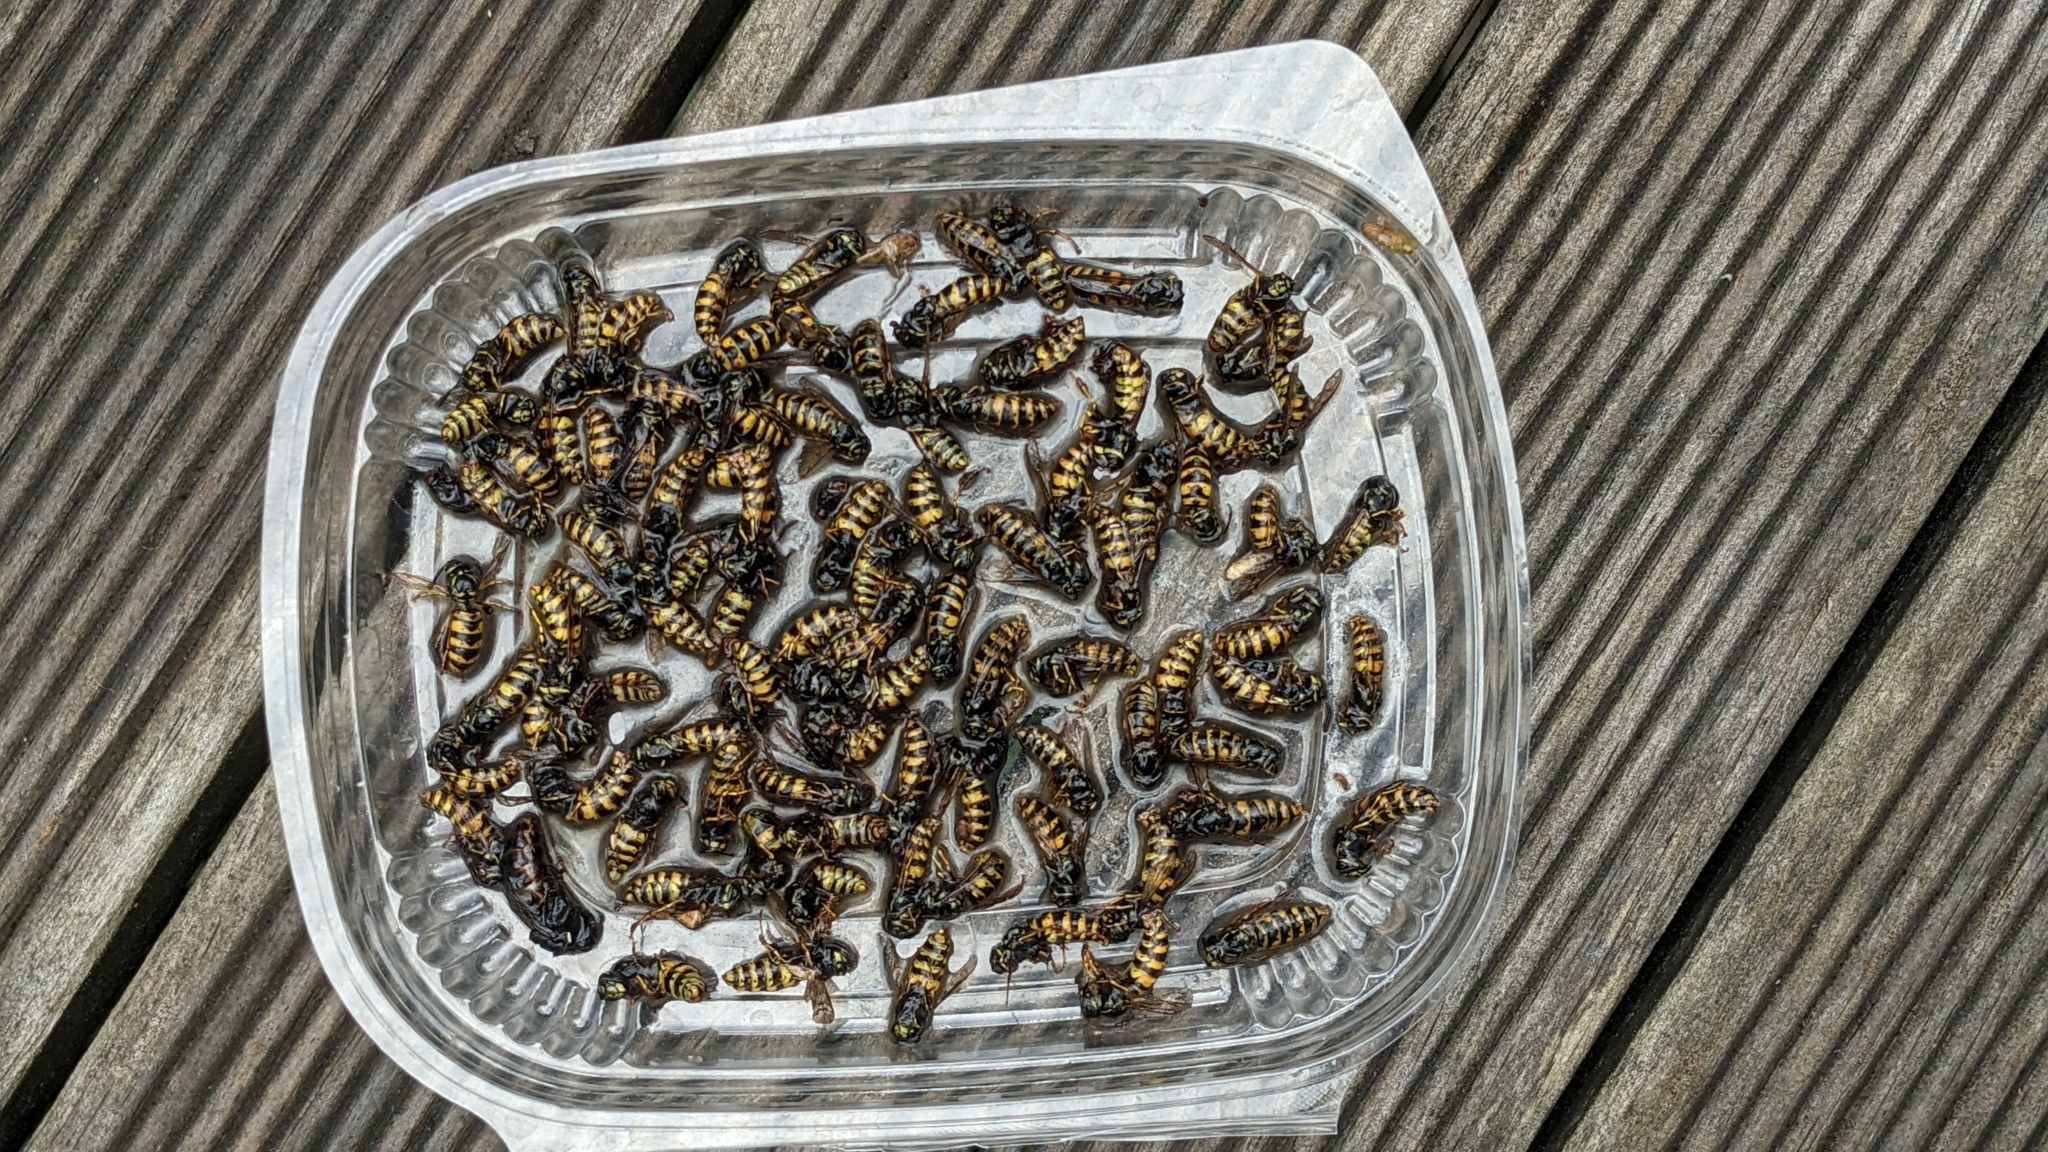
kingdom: Animalia
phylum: Arthropoda
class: Insecta
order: Hymenoptera
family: Vespidae
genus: Vespula
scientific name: Vespula vulgaris
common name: Common wasp
